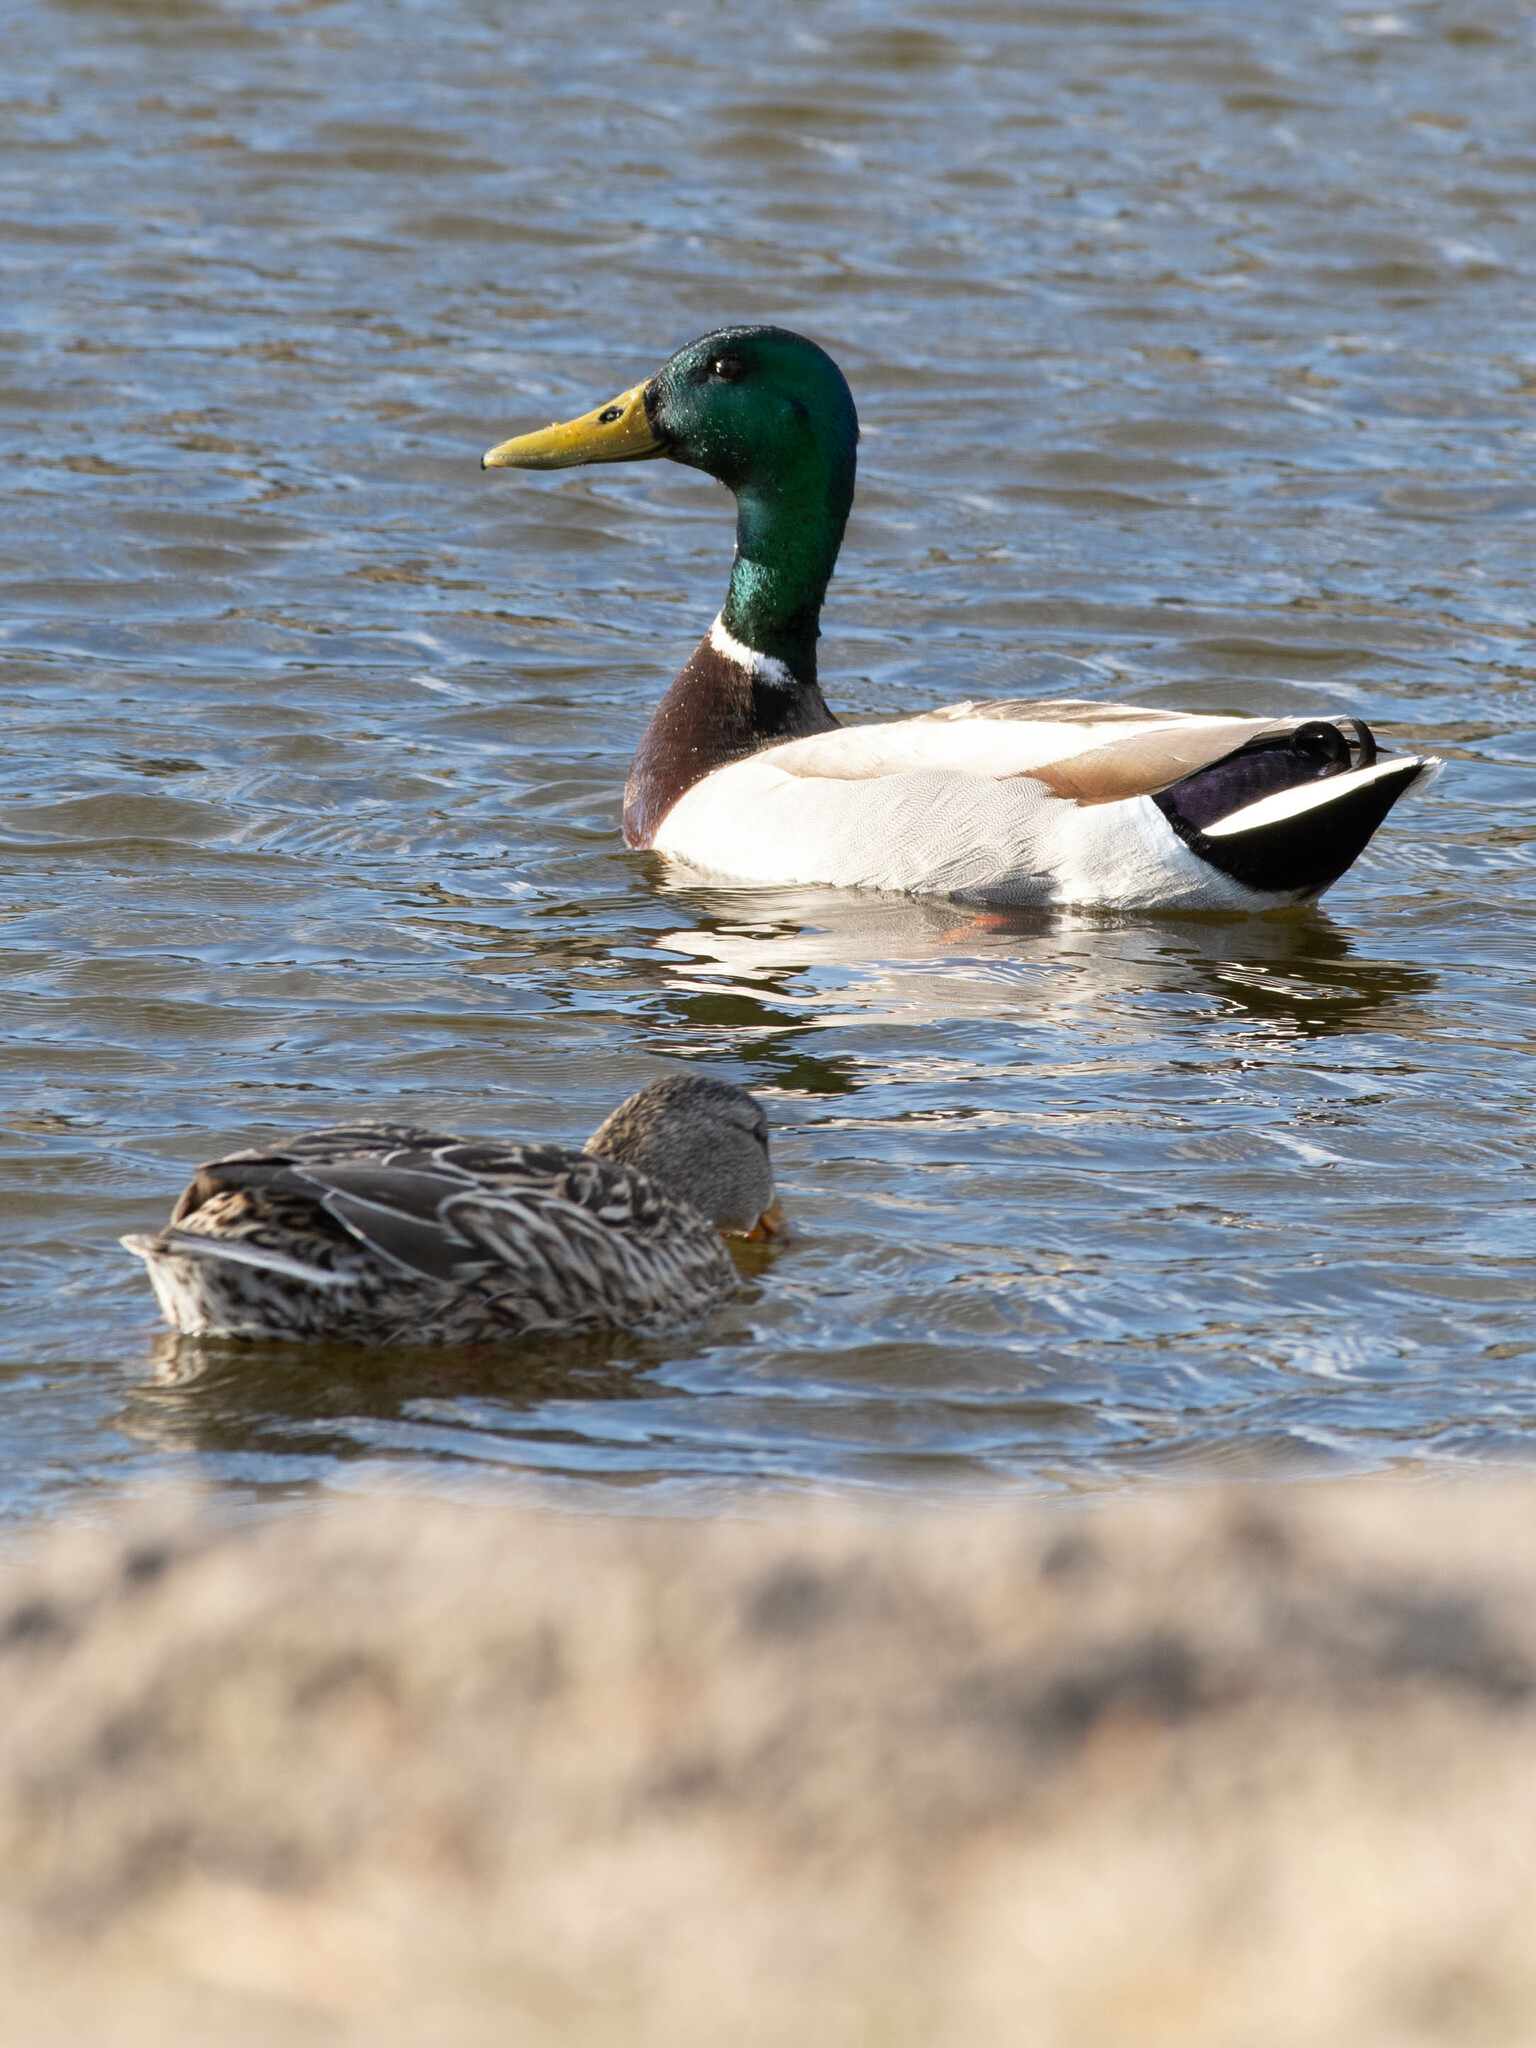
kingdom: Animalia
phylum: Chordata
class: Aves
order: Anseriformes
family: Anatidae
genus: Anas
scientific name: Anas platyrhynchos
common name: Mallard
